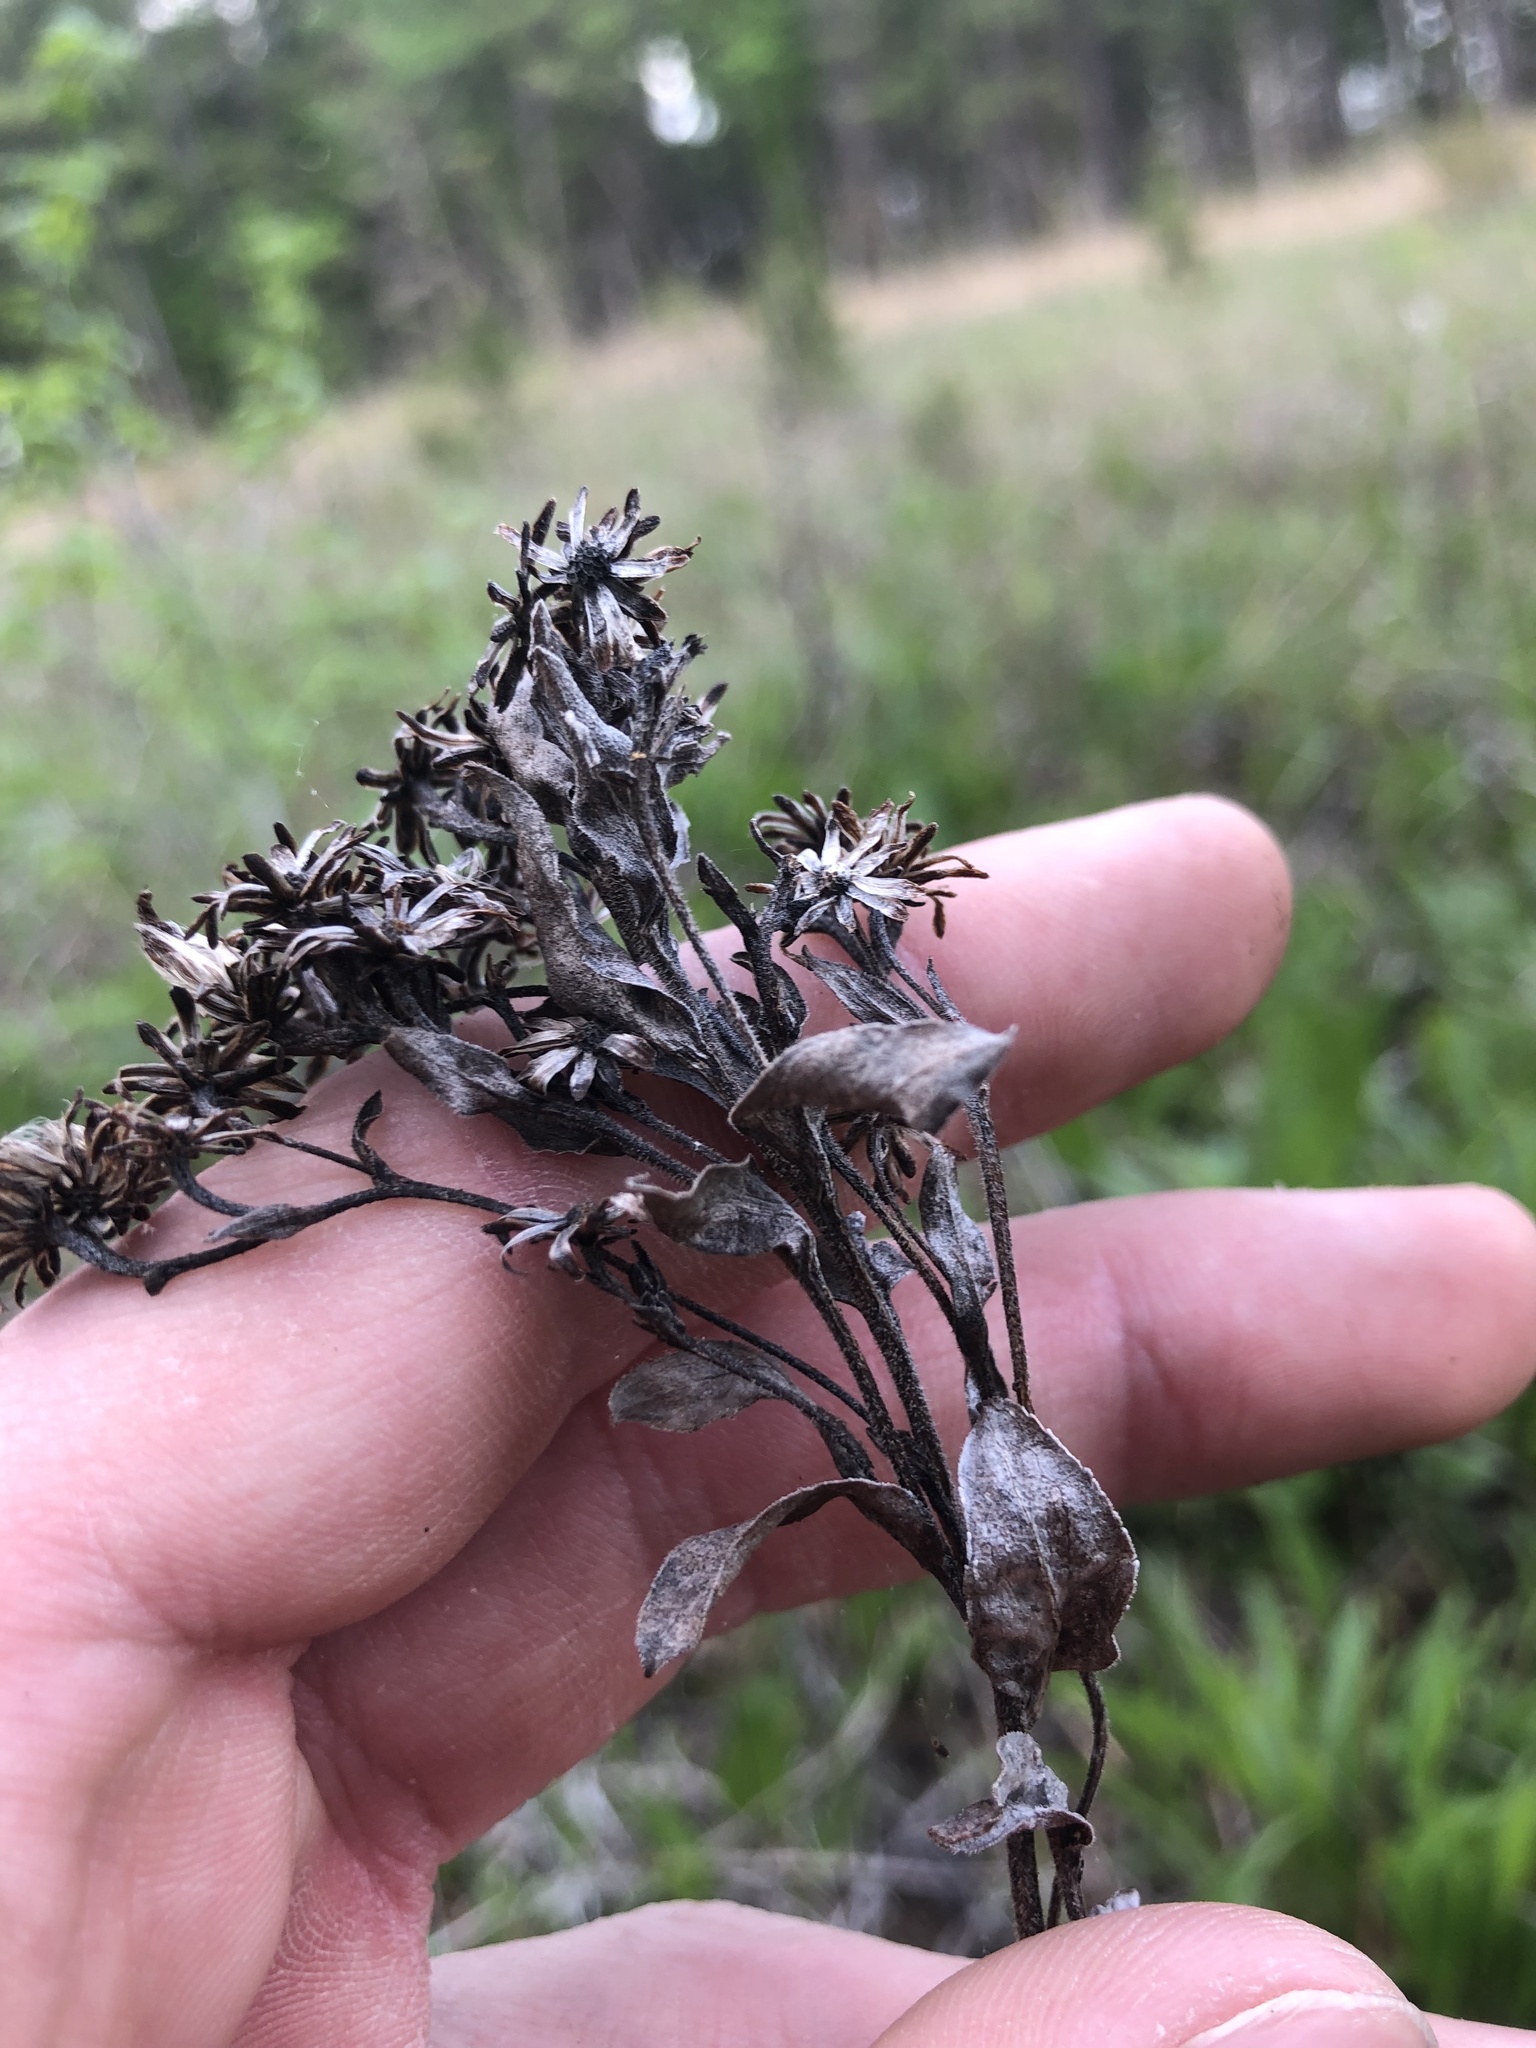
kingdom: Plantae
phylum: Tracheophyta
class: Magnoliopsida
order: Asterales
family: Asteraceae
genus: Solidago
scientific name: Solidago rigida
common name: Rigid goldenrod
